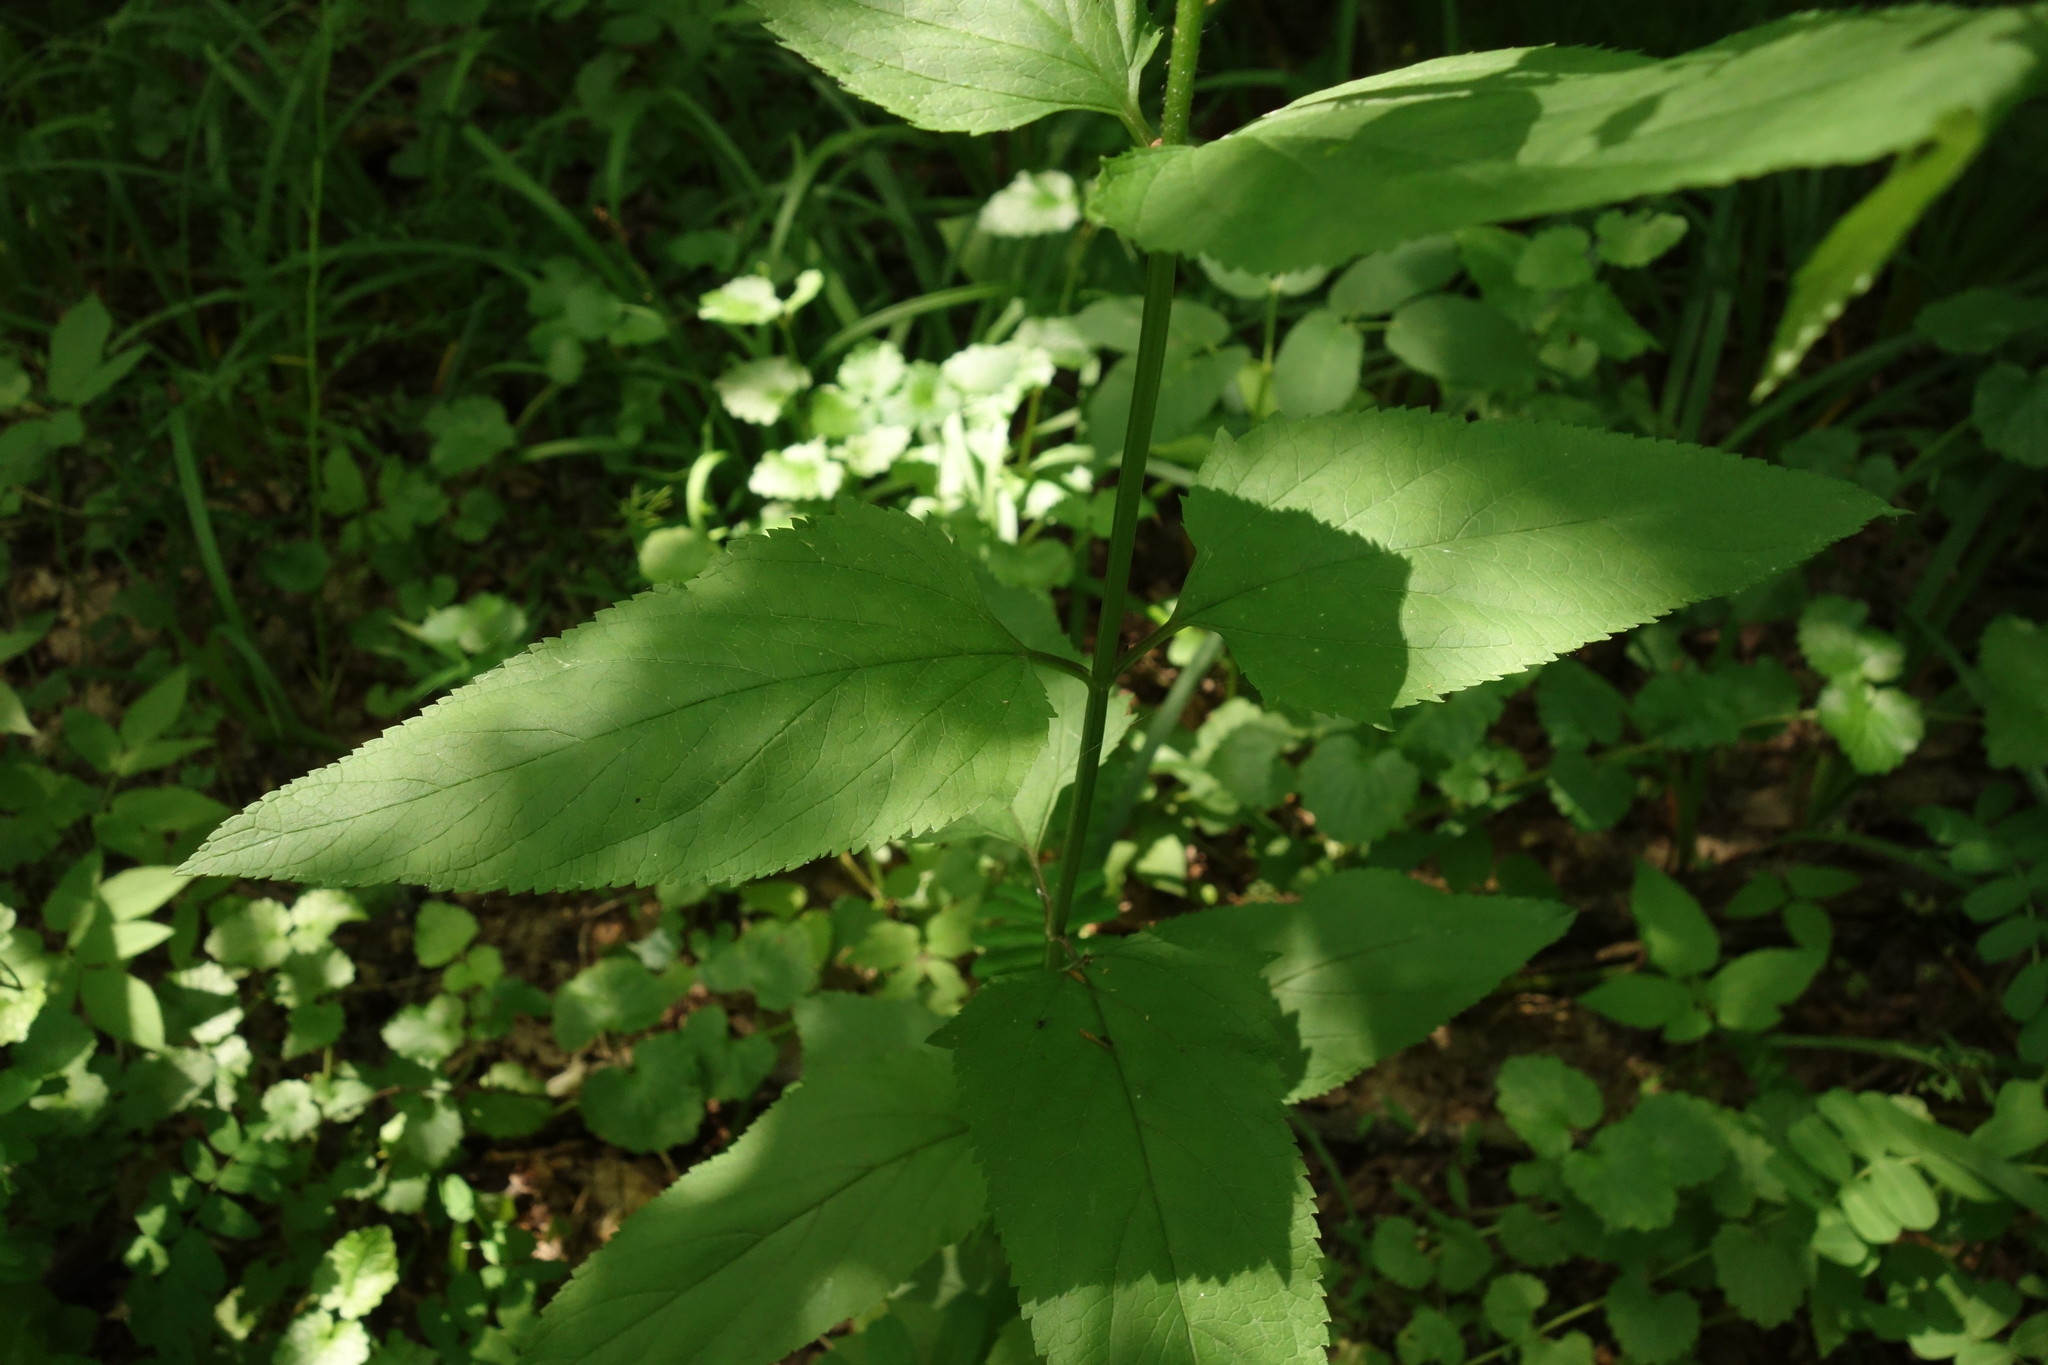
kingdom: Plantae
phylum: Tracheophyta
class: Magnoliopsida
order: Lamiales
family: Scrophulariaceae
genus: Scrophularia
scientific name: Scrophularia nodosa
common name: Common figwort
